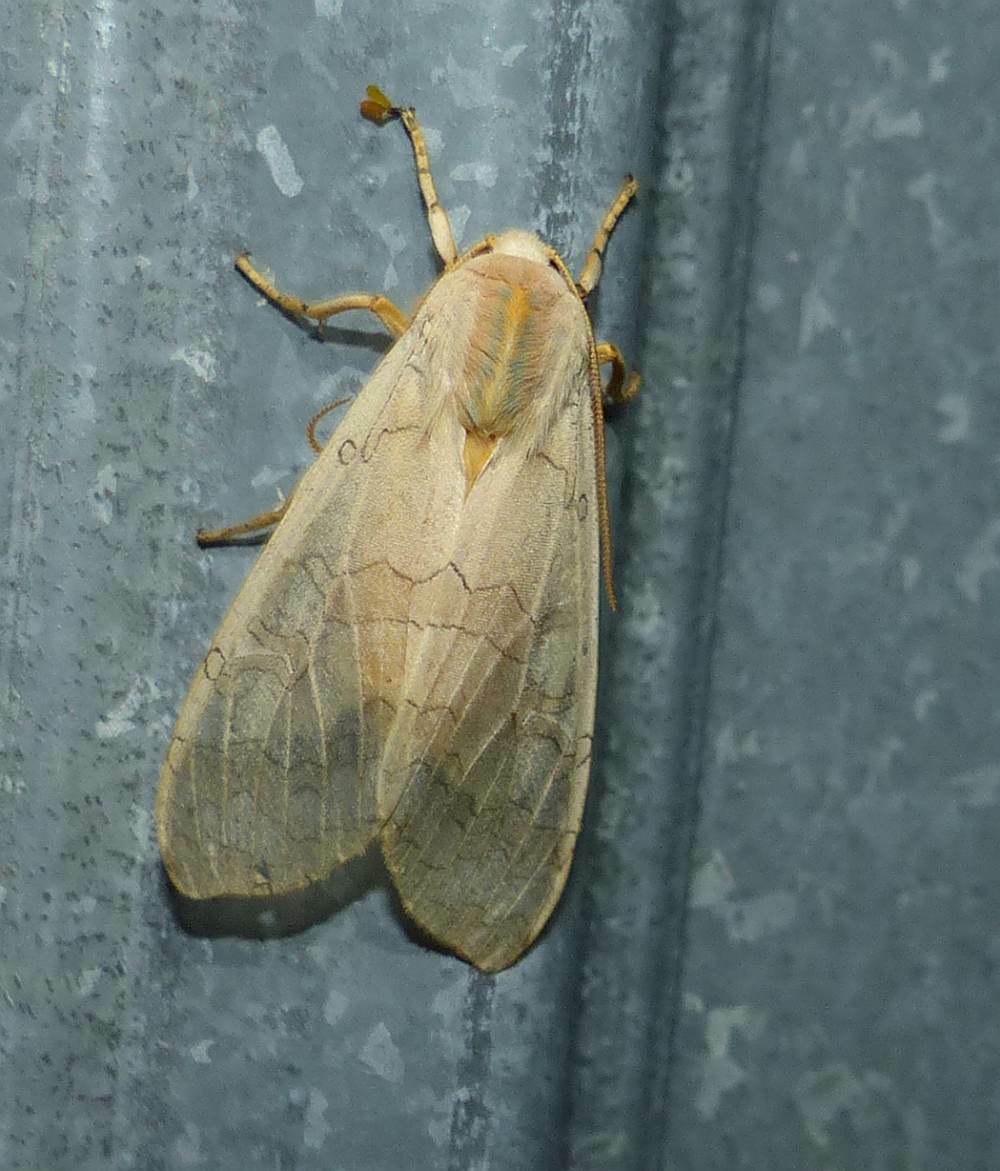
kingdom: Animalia
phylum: Arthropoda
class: Insecta
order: Lepidoptera
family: Erebidae
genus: Halysidota
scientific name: Halysidota tessellaris
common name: Banded tussock moth
